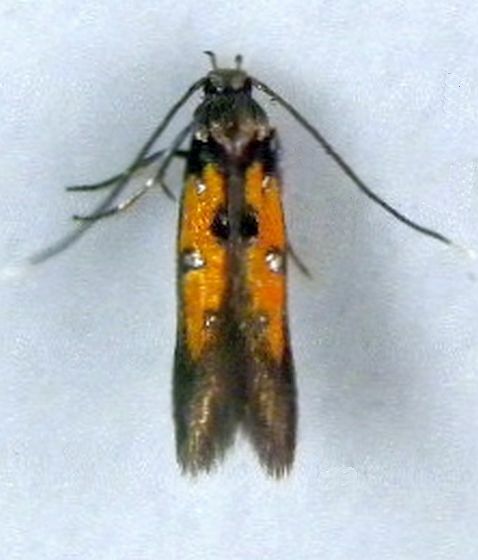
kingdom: Animalia
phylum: Arthropoda
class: Insecta
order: Lepidoptera
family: Elachistidae
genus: Chrysoclista
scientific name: Chrysoclista linneela
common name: Lime cosmet
